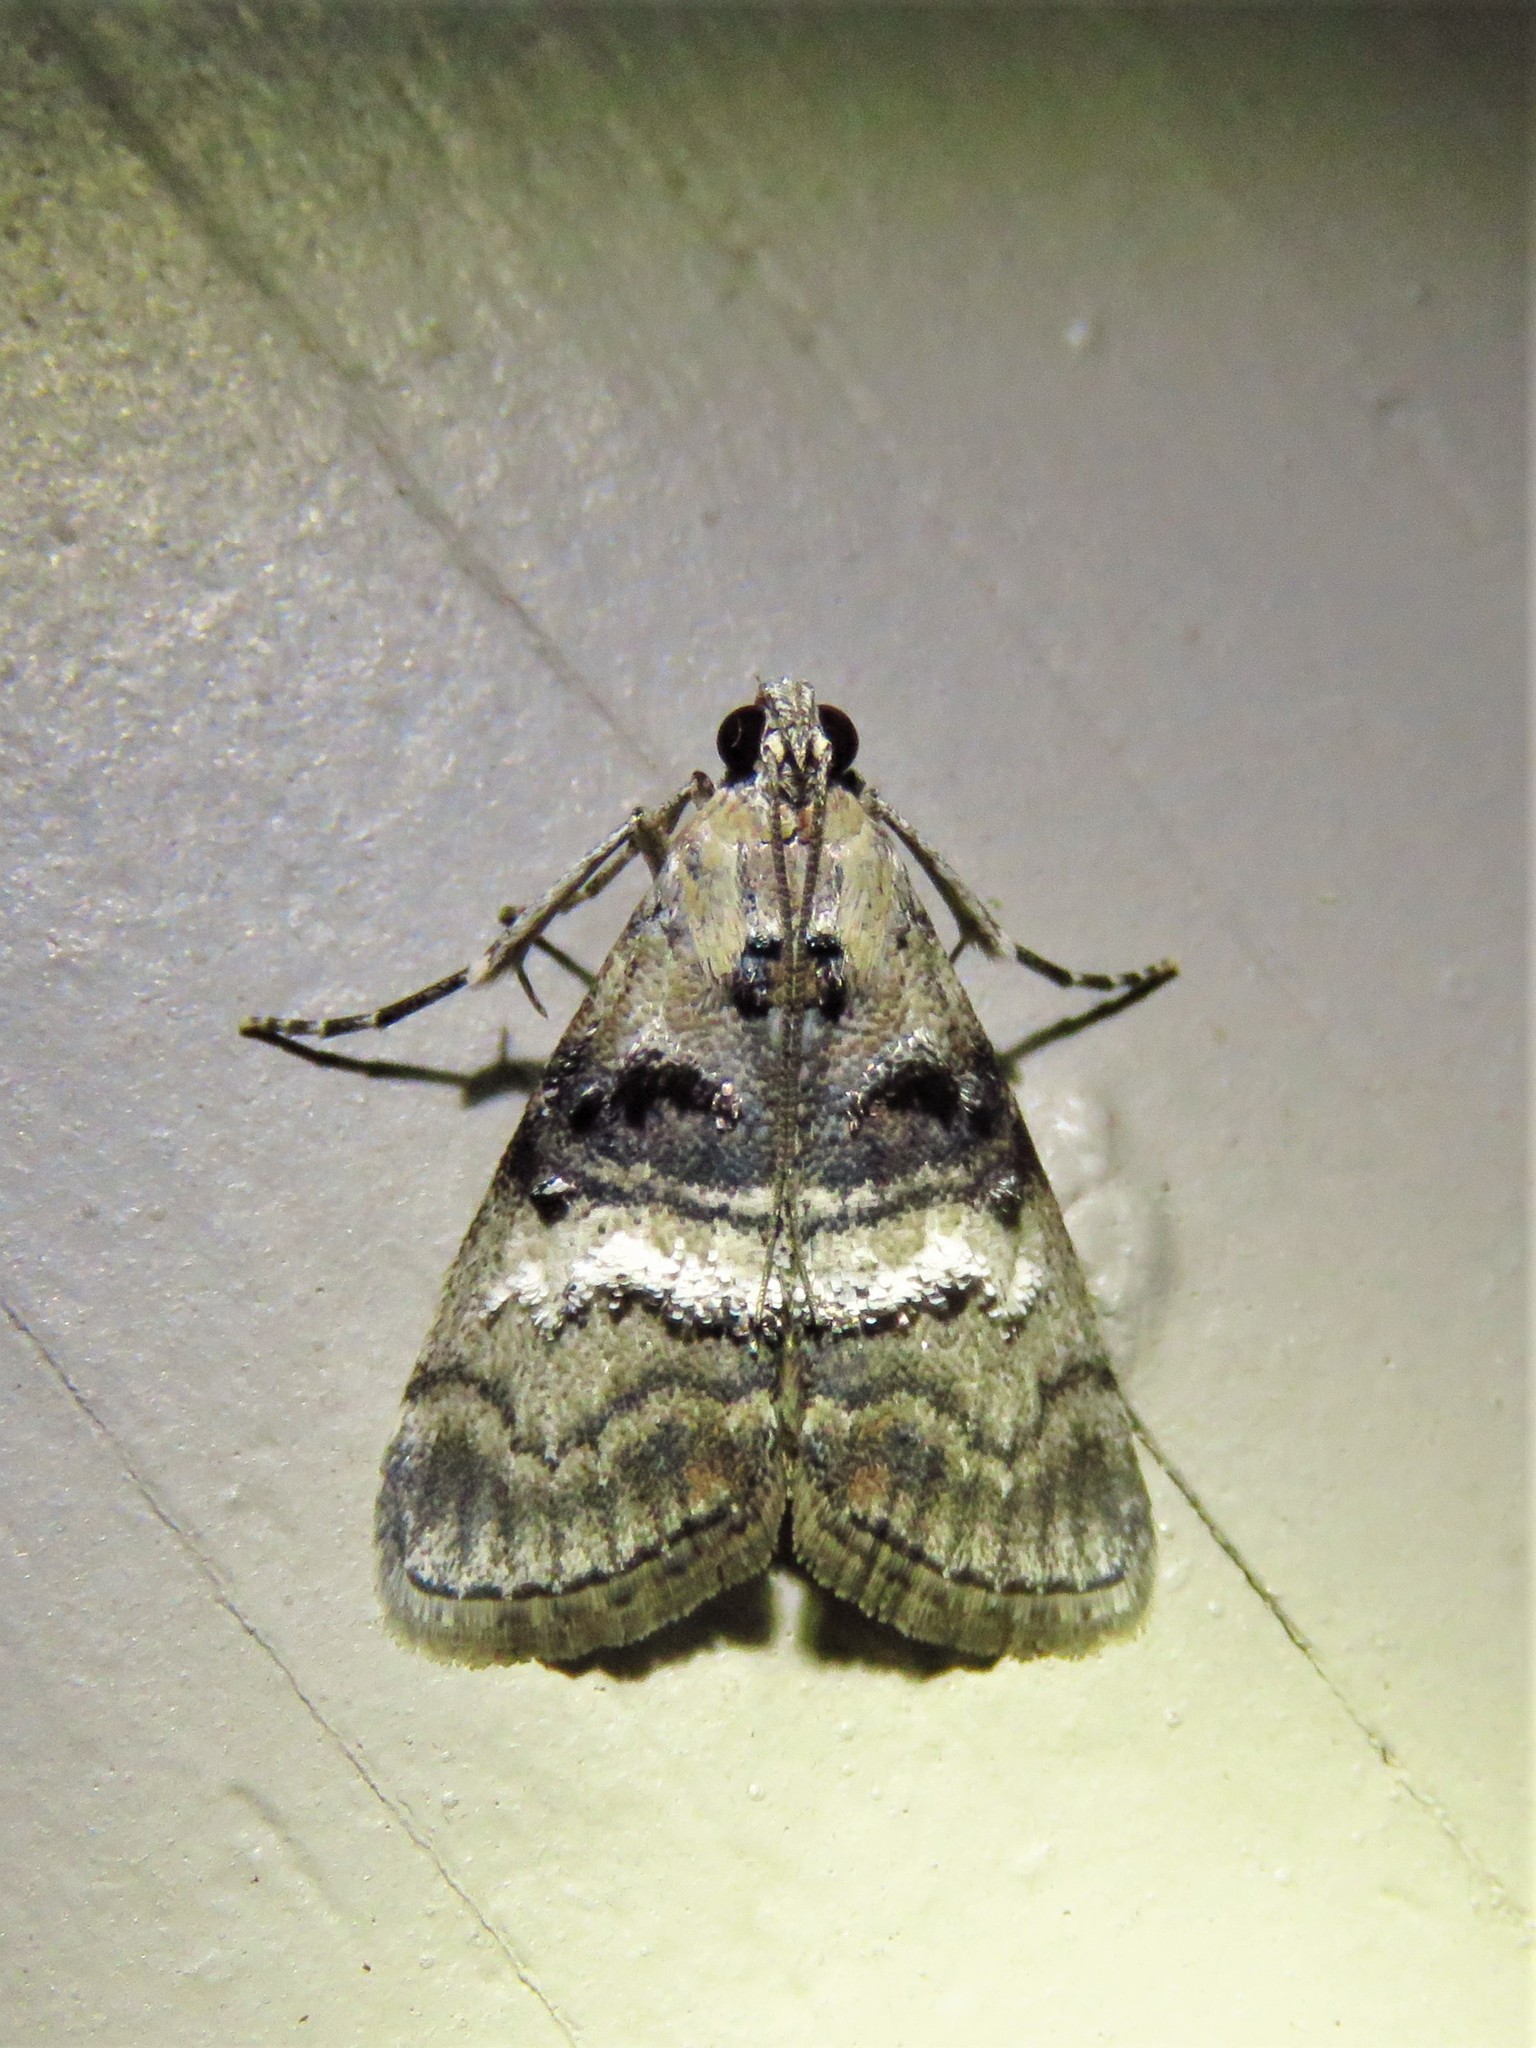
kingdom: Animalia
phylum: Arthropoda
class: Insecta
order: Lepidoptera
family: Pyralidae
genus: Pococera
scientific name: Pococera asperatella
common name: Maple webworm moth
